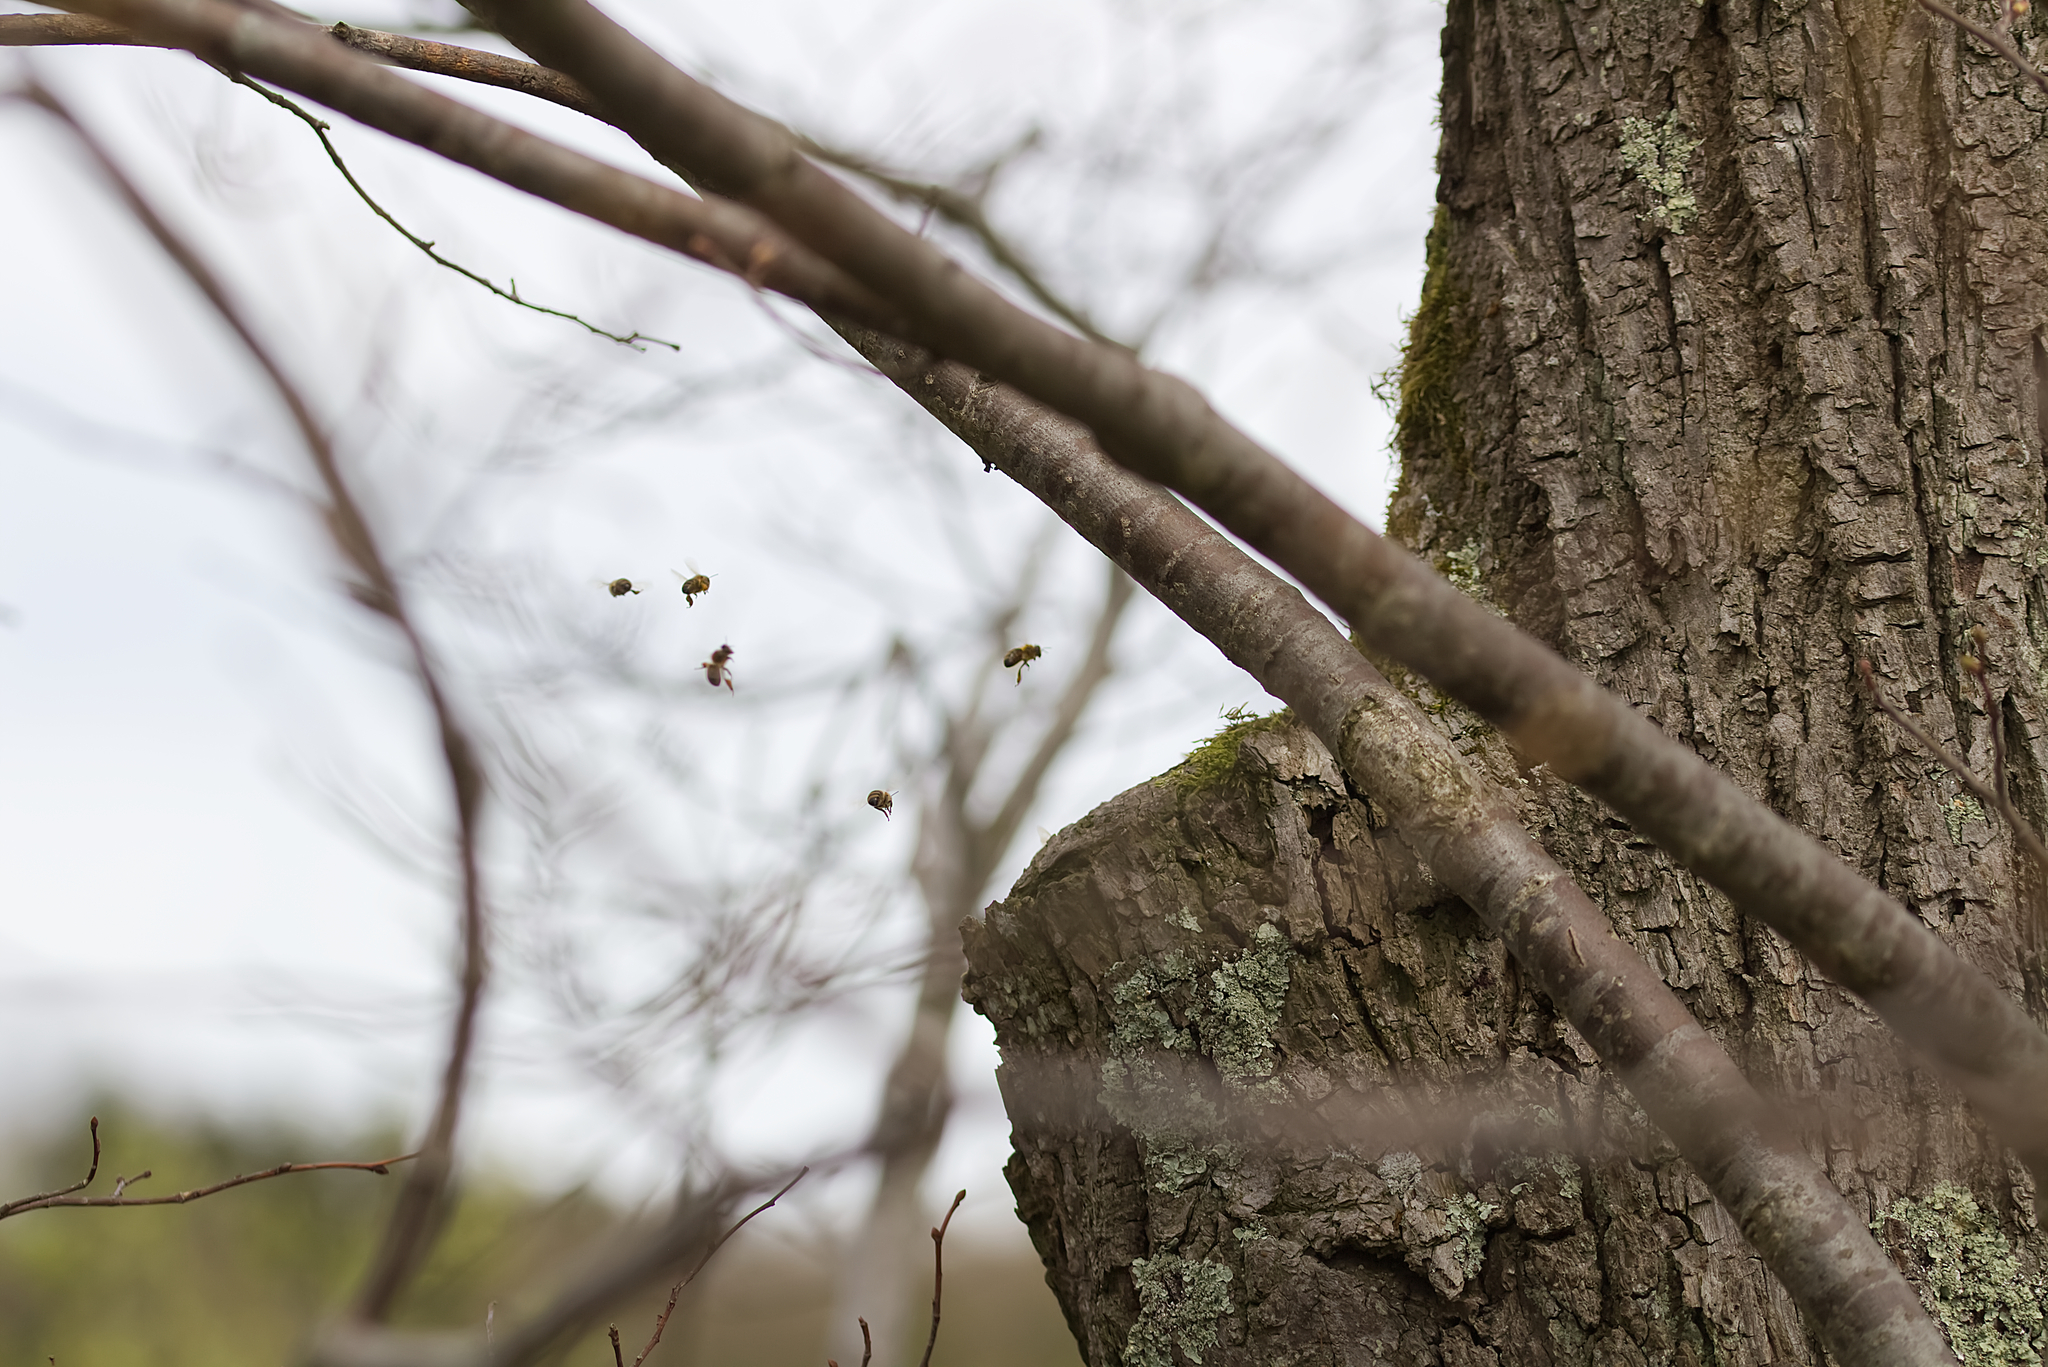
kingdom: Animalia
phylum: Arthropoda
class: Insecta
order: Hymenoptera
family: Apidae
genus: Apis
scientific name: Apis mellifera
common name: Honey bee
